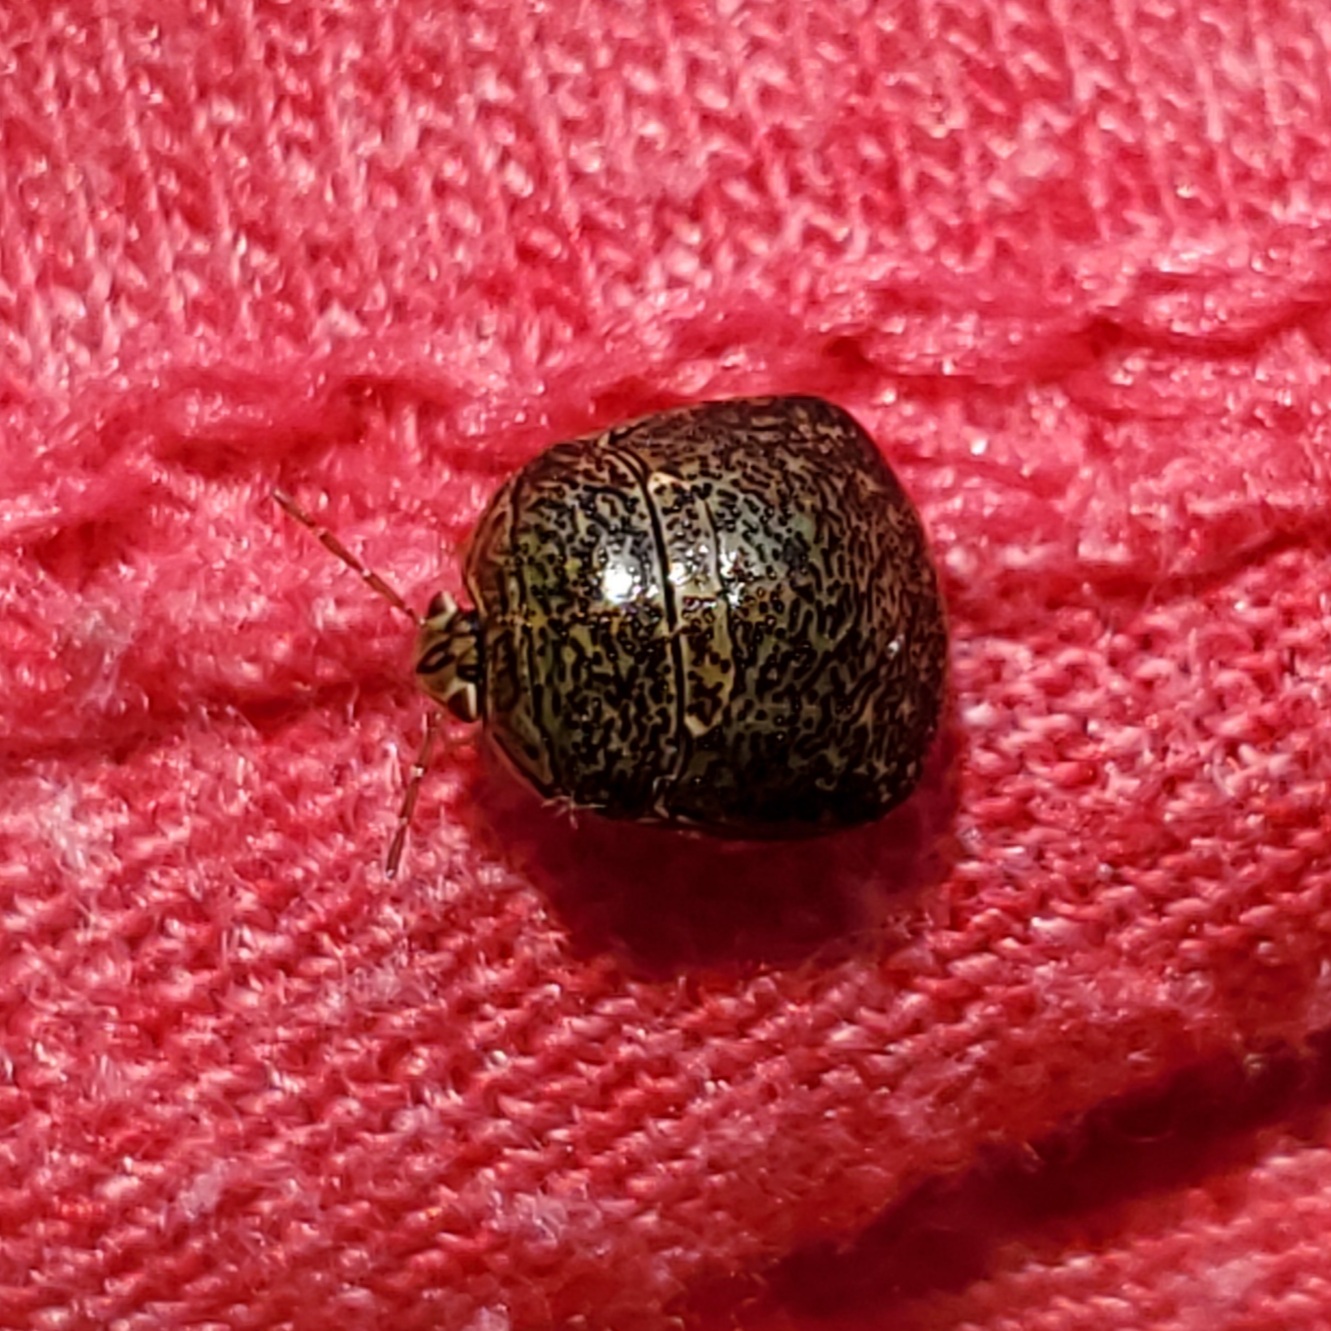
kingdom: Animalia
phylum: Arthropoda
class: Insecta
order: Hemiptera
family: Plataspidae
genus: Megacopta
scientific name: Megacopta cribraria
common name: Bean plataspid
